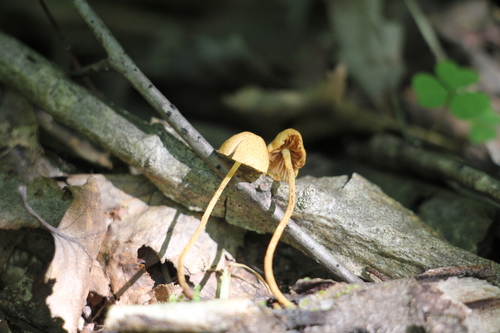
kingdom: Fungi
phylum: Basidiomycota
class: Agaricomycetes
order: Agaricales
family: Tubariaceae
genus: Flammulaster
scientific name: Flammulaster limulatus
